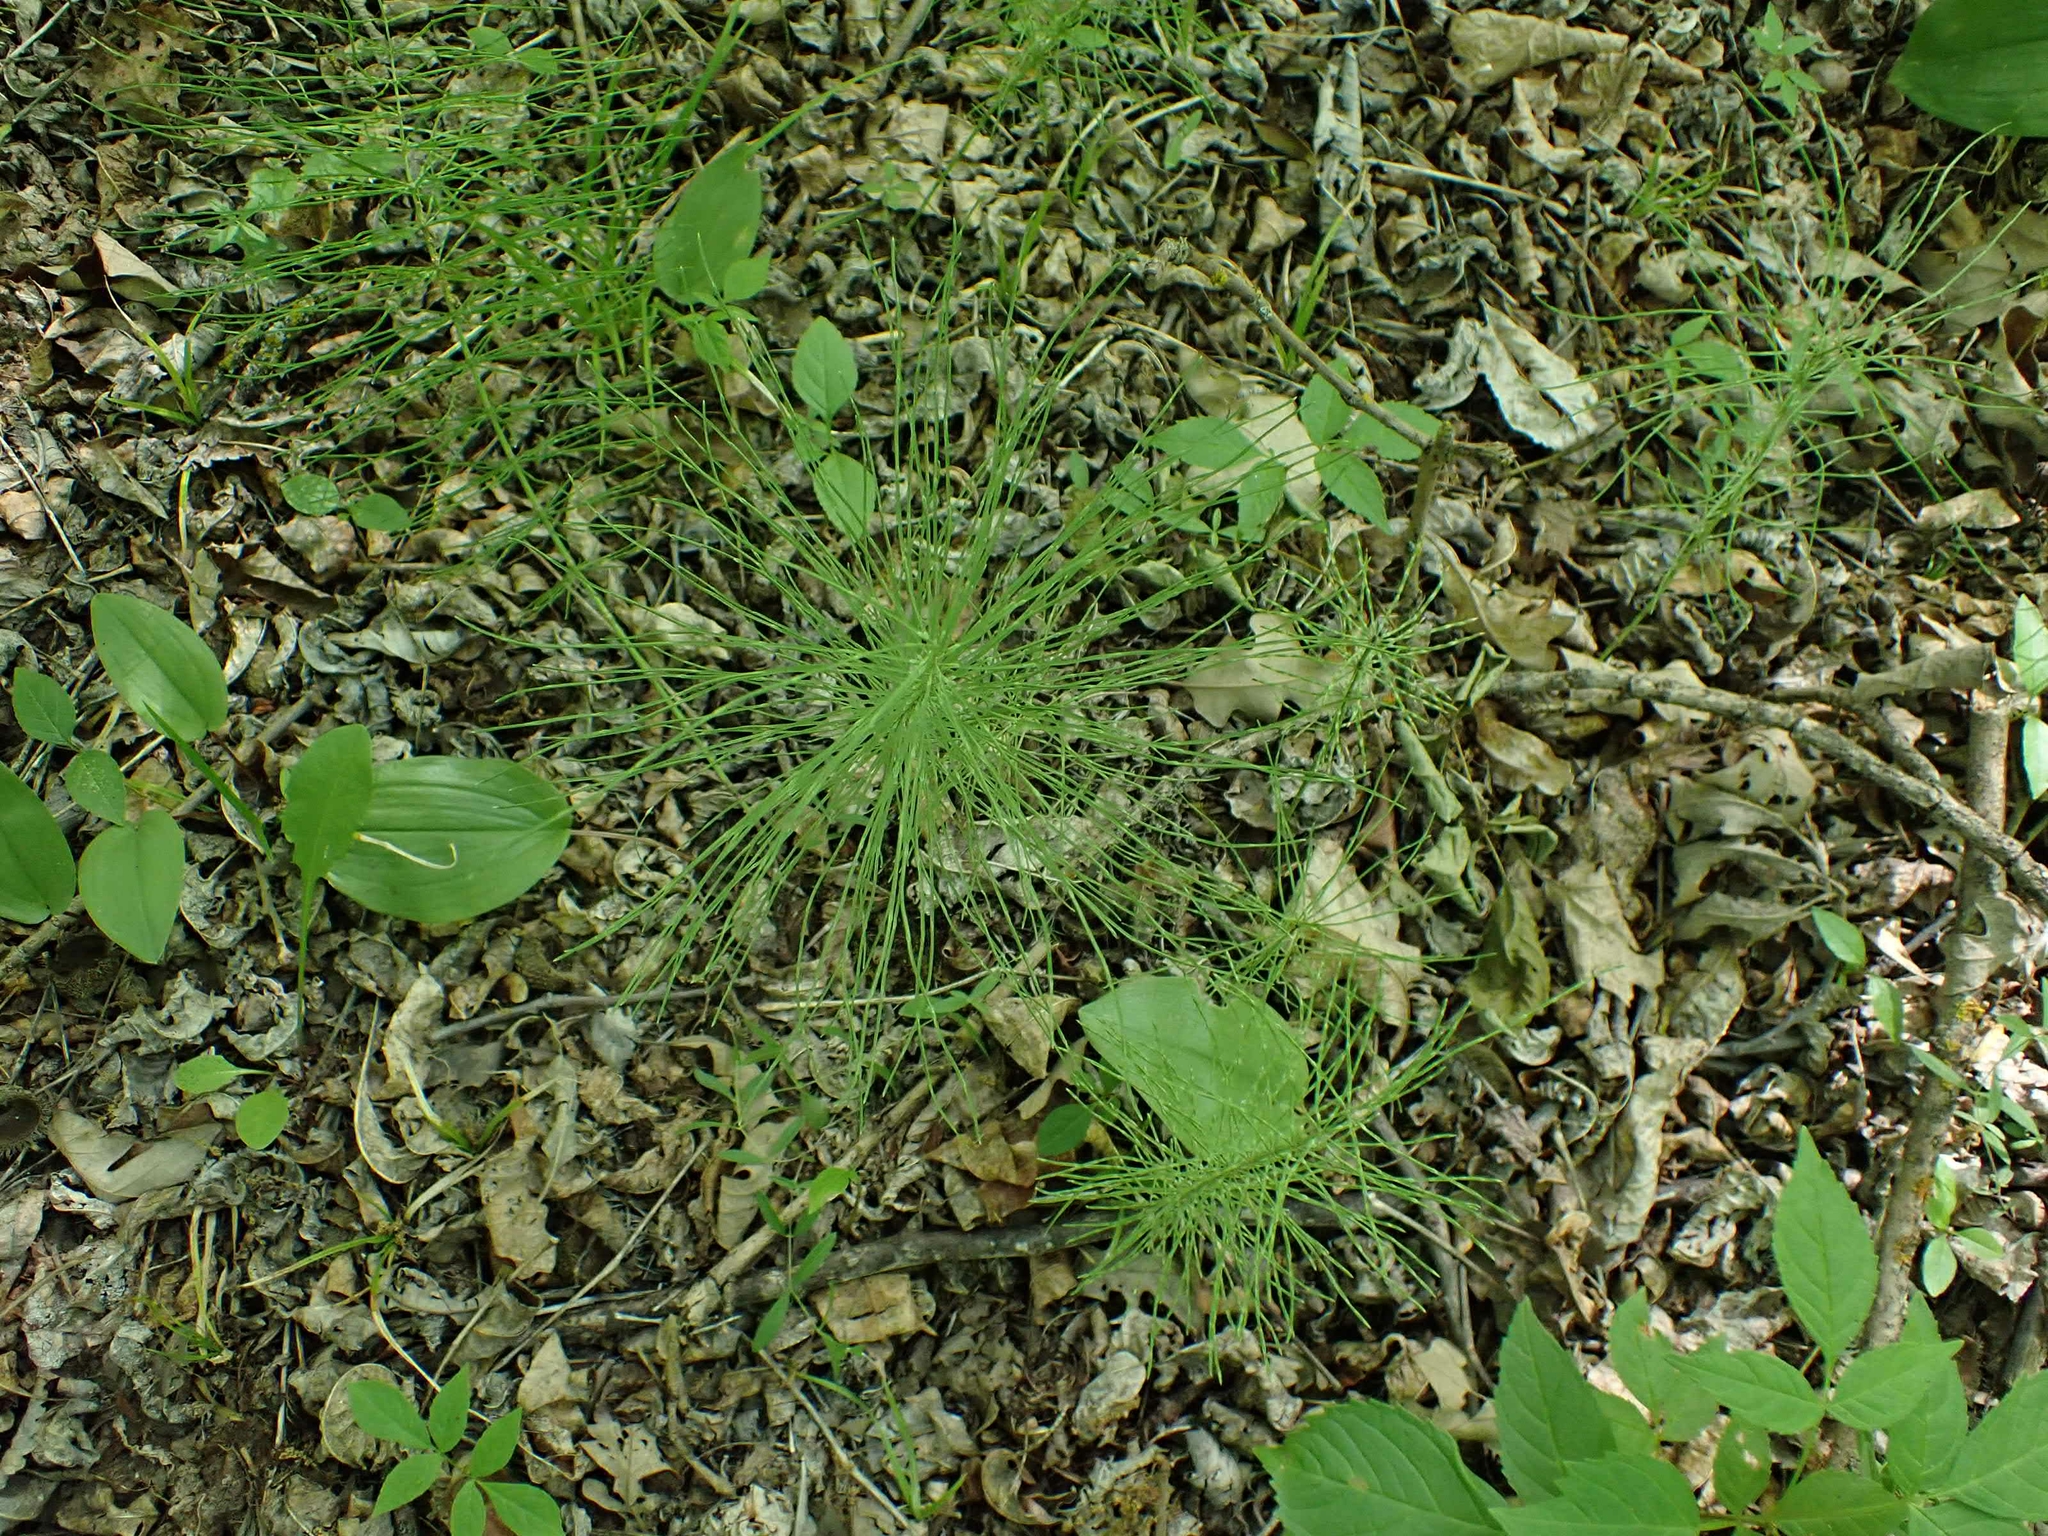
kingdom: Plantae
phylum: Tracheophyta
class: Polypodiopsida
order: Equisetales
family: Equisetaceae
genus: Equisetum
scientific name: Equisetum pratense
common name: Meadow horsetail
